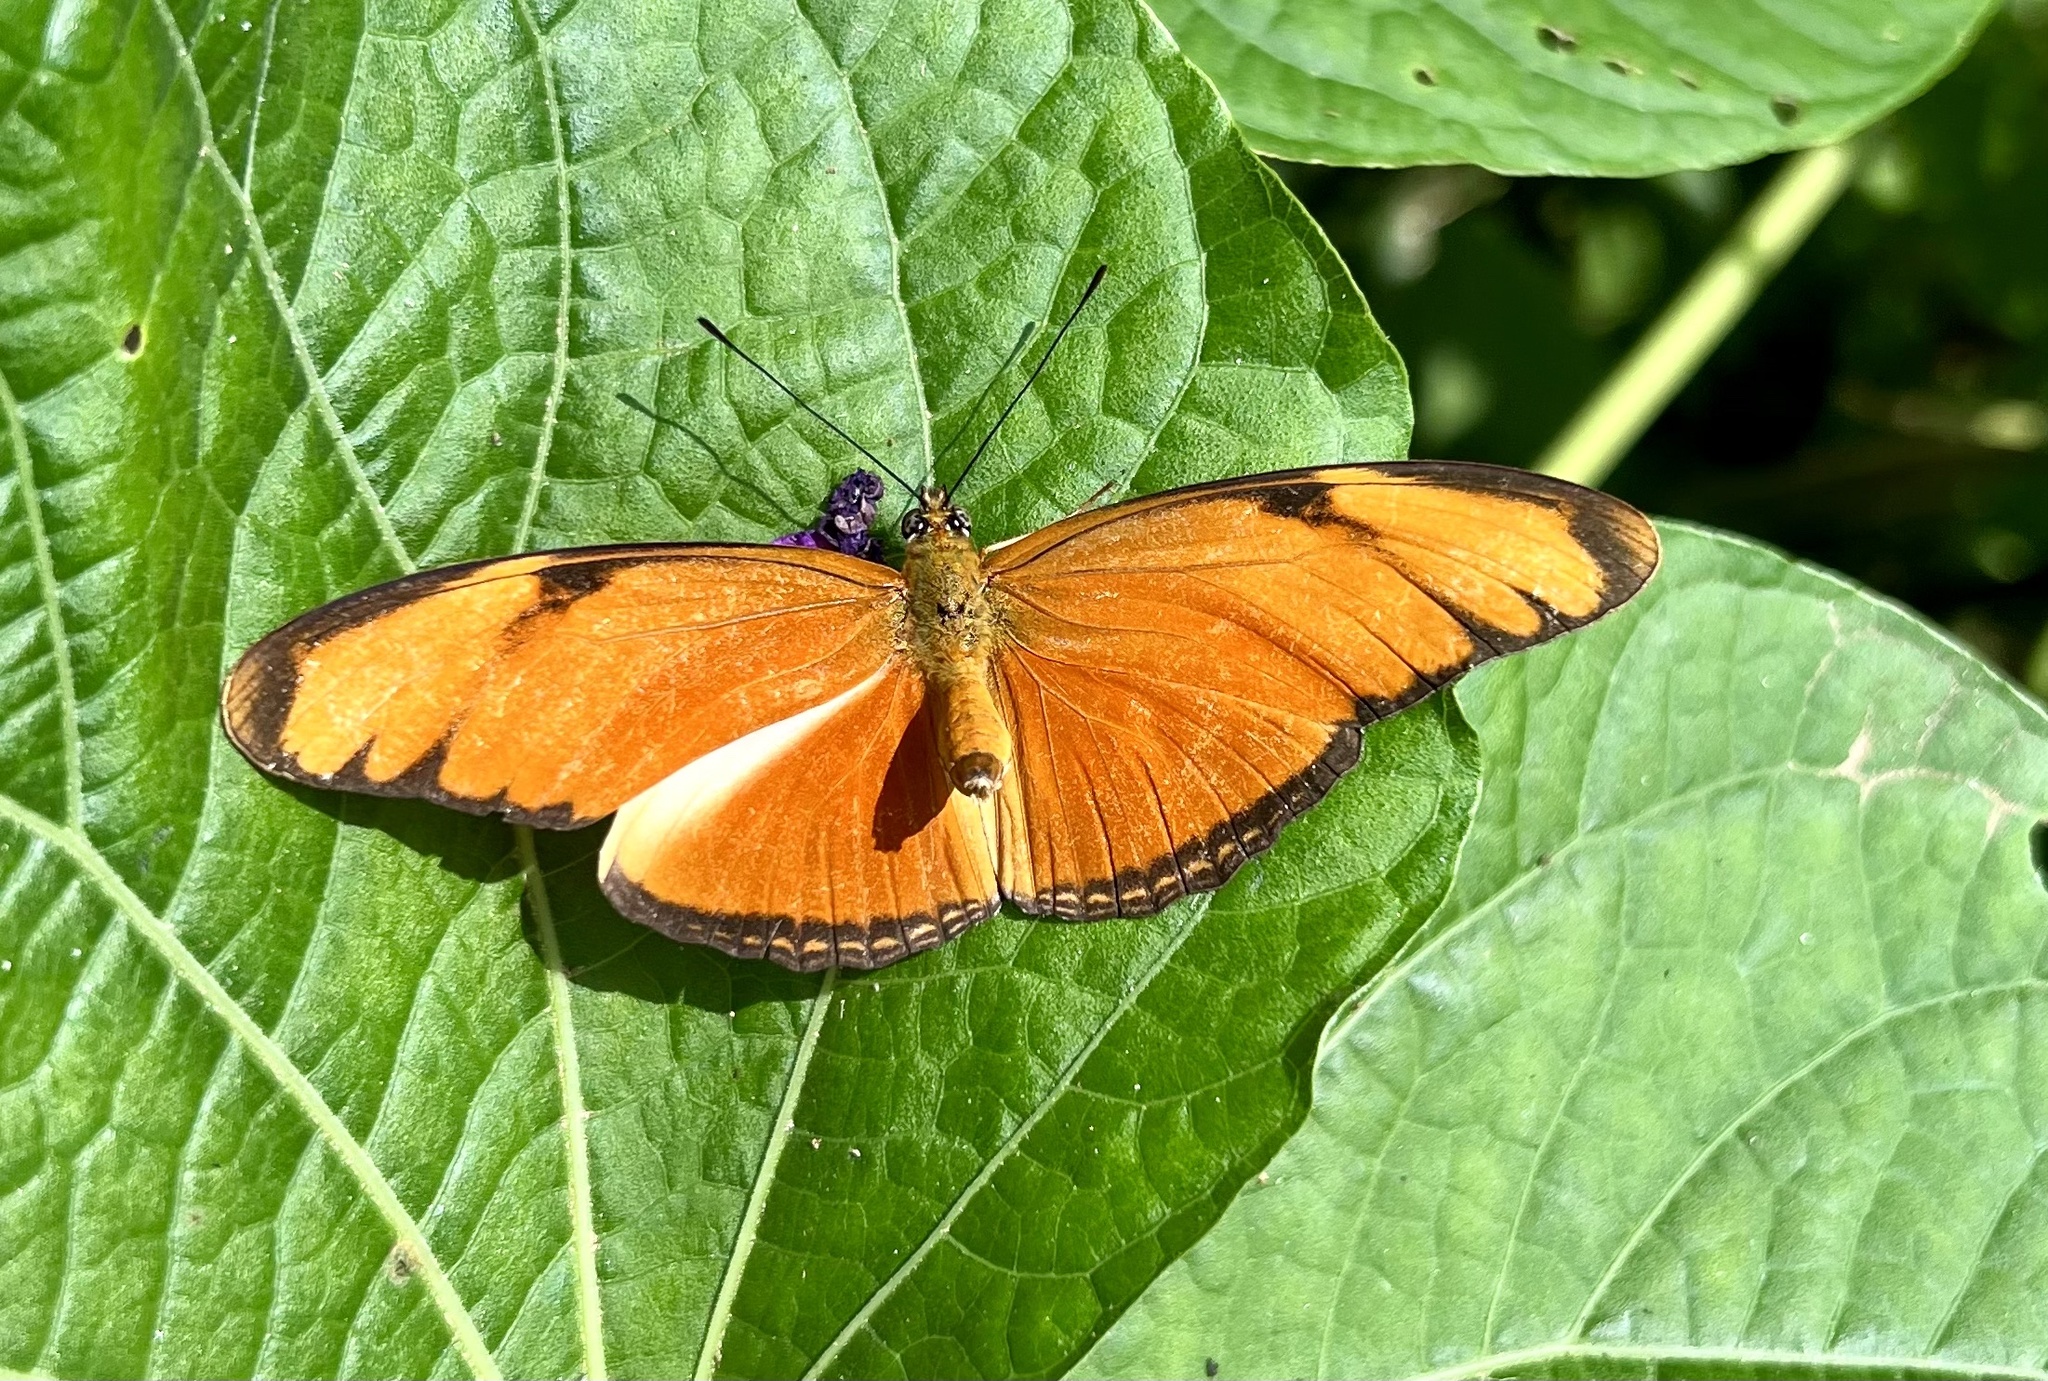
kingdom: Animalia
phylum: Arthropoda
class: Insecta
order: Lepidoptera
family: Nymphalidae
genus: Dryas
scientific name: Dryas iulia
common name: Flambeau
